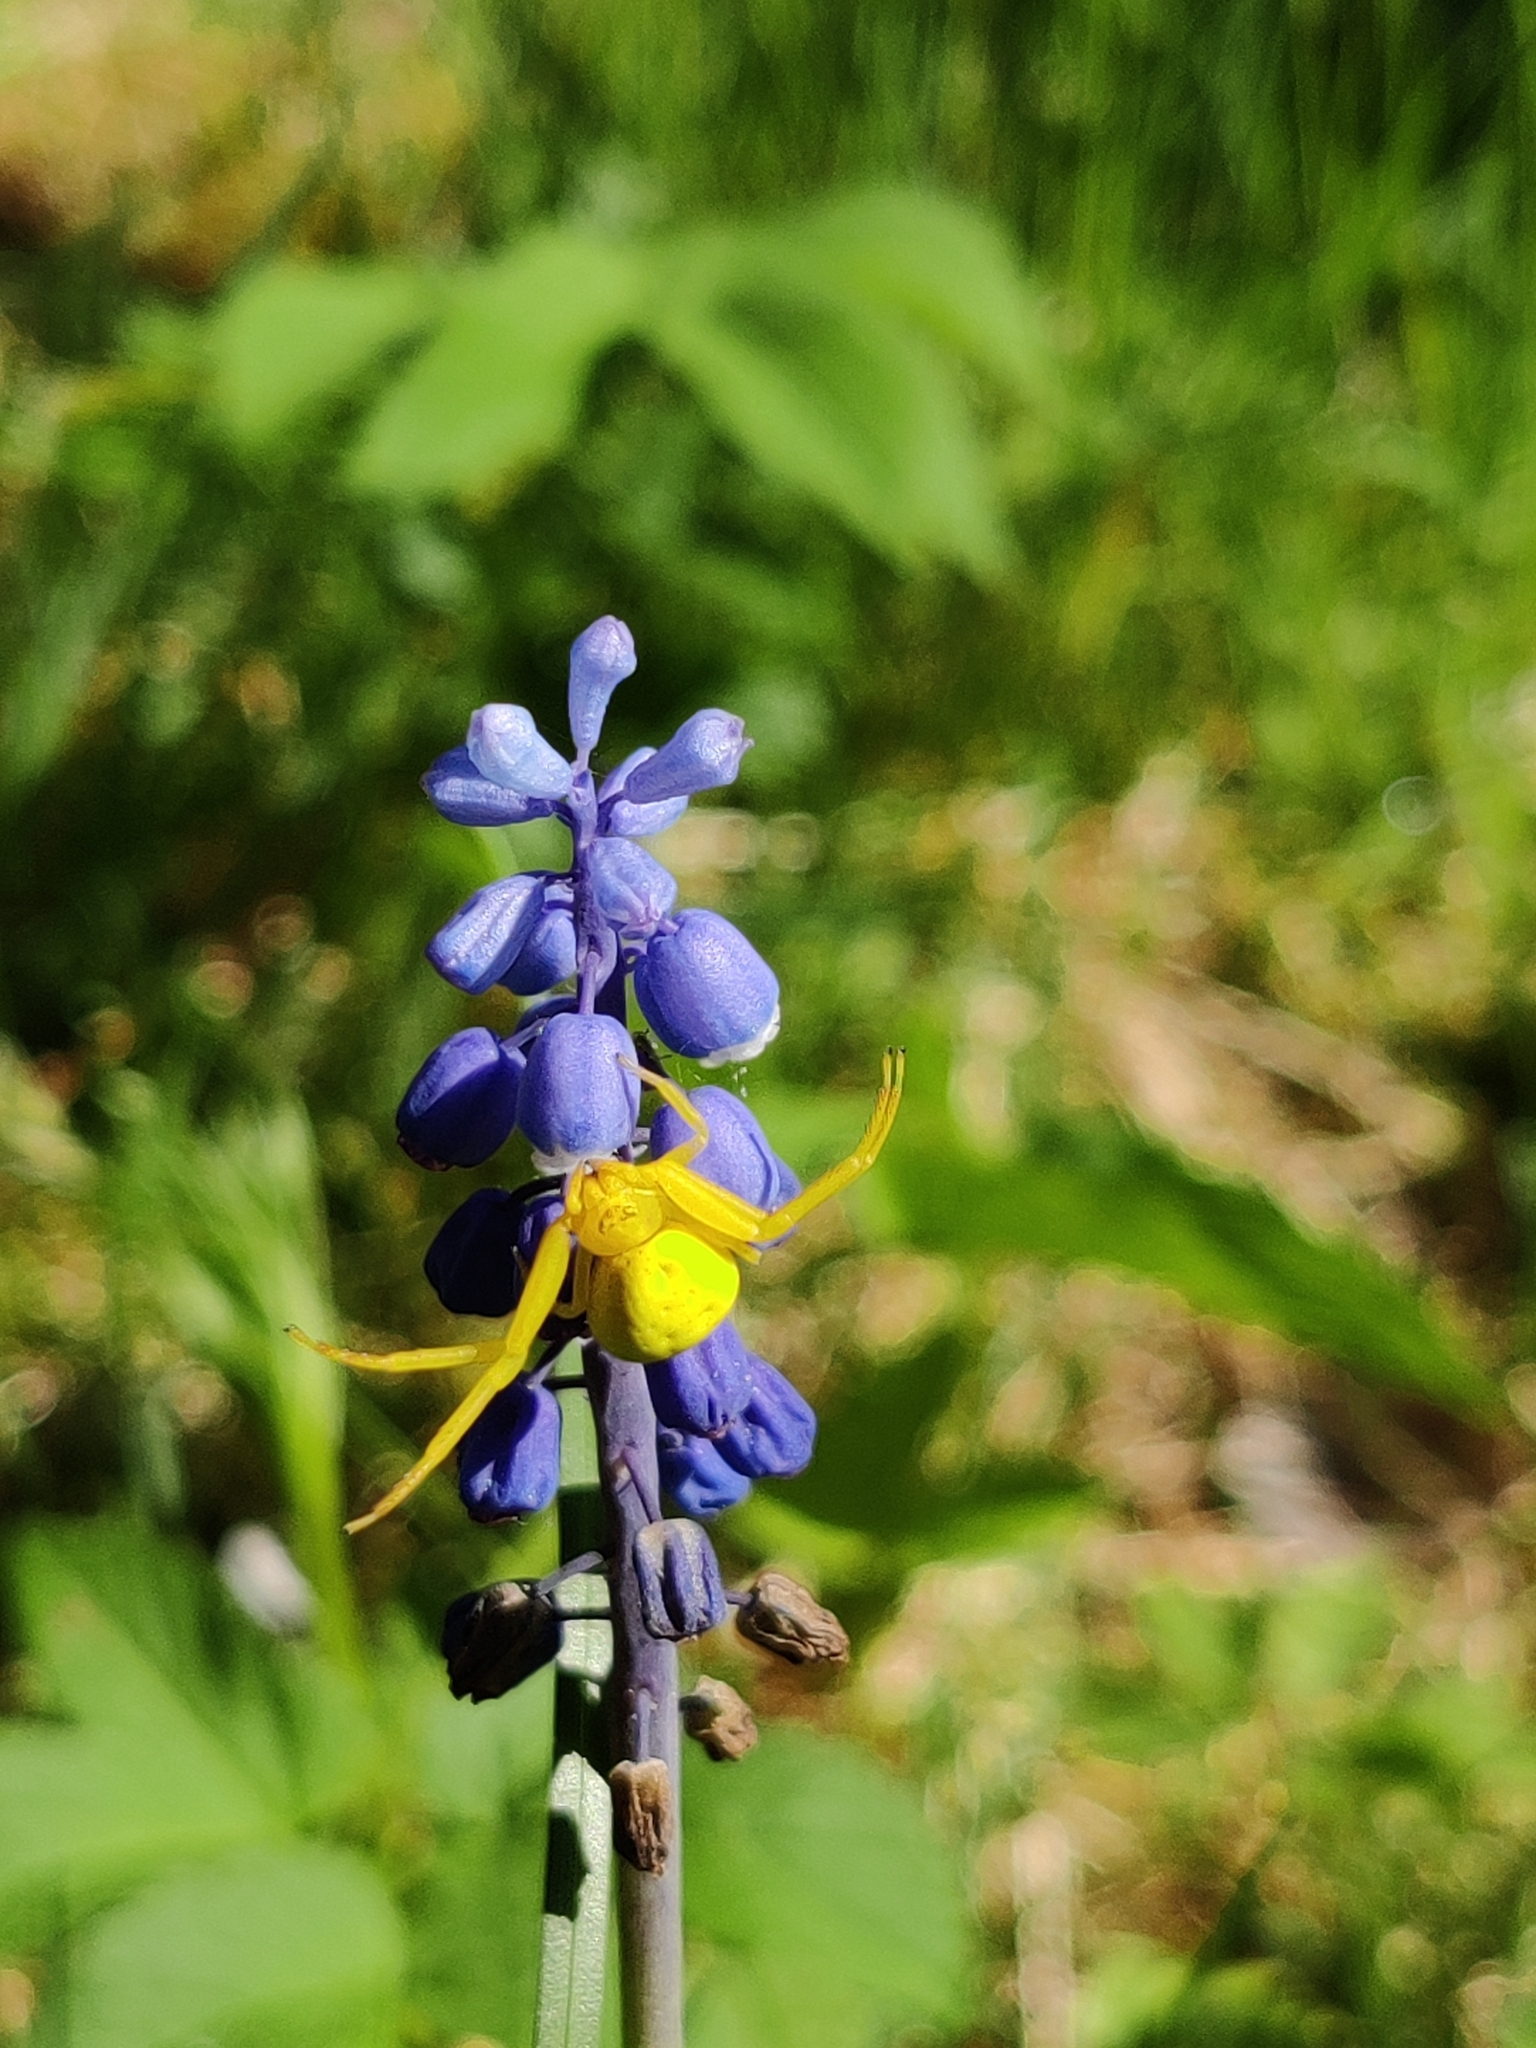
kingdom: Animalia
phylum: Arthropoda
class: Arachnida
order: Araneae
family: Thomisidae
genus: Misumena
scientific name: Misumena vatia
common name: Goldenrod crab spider
